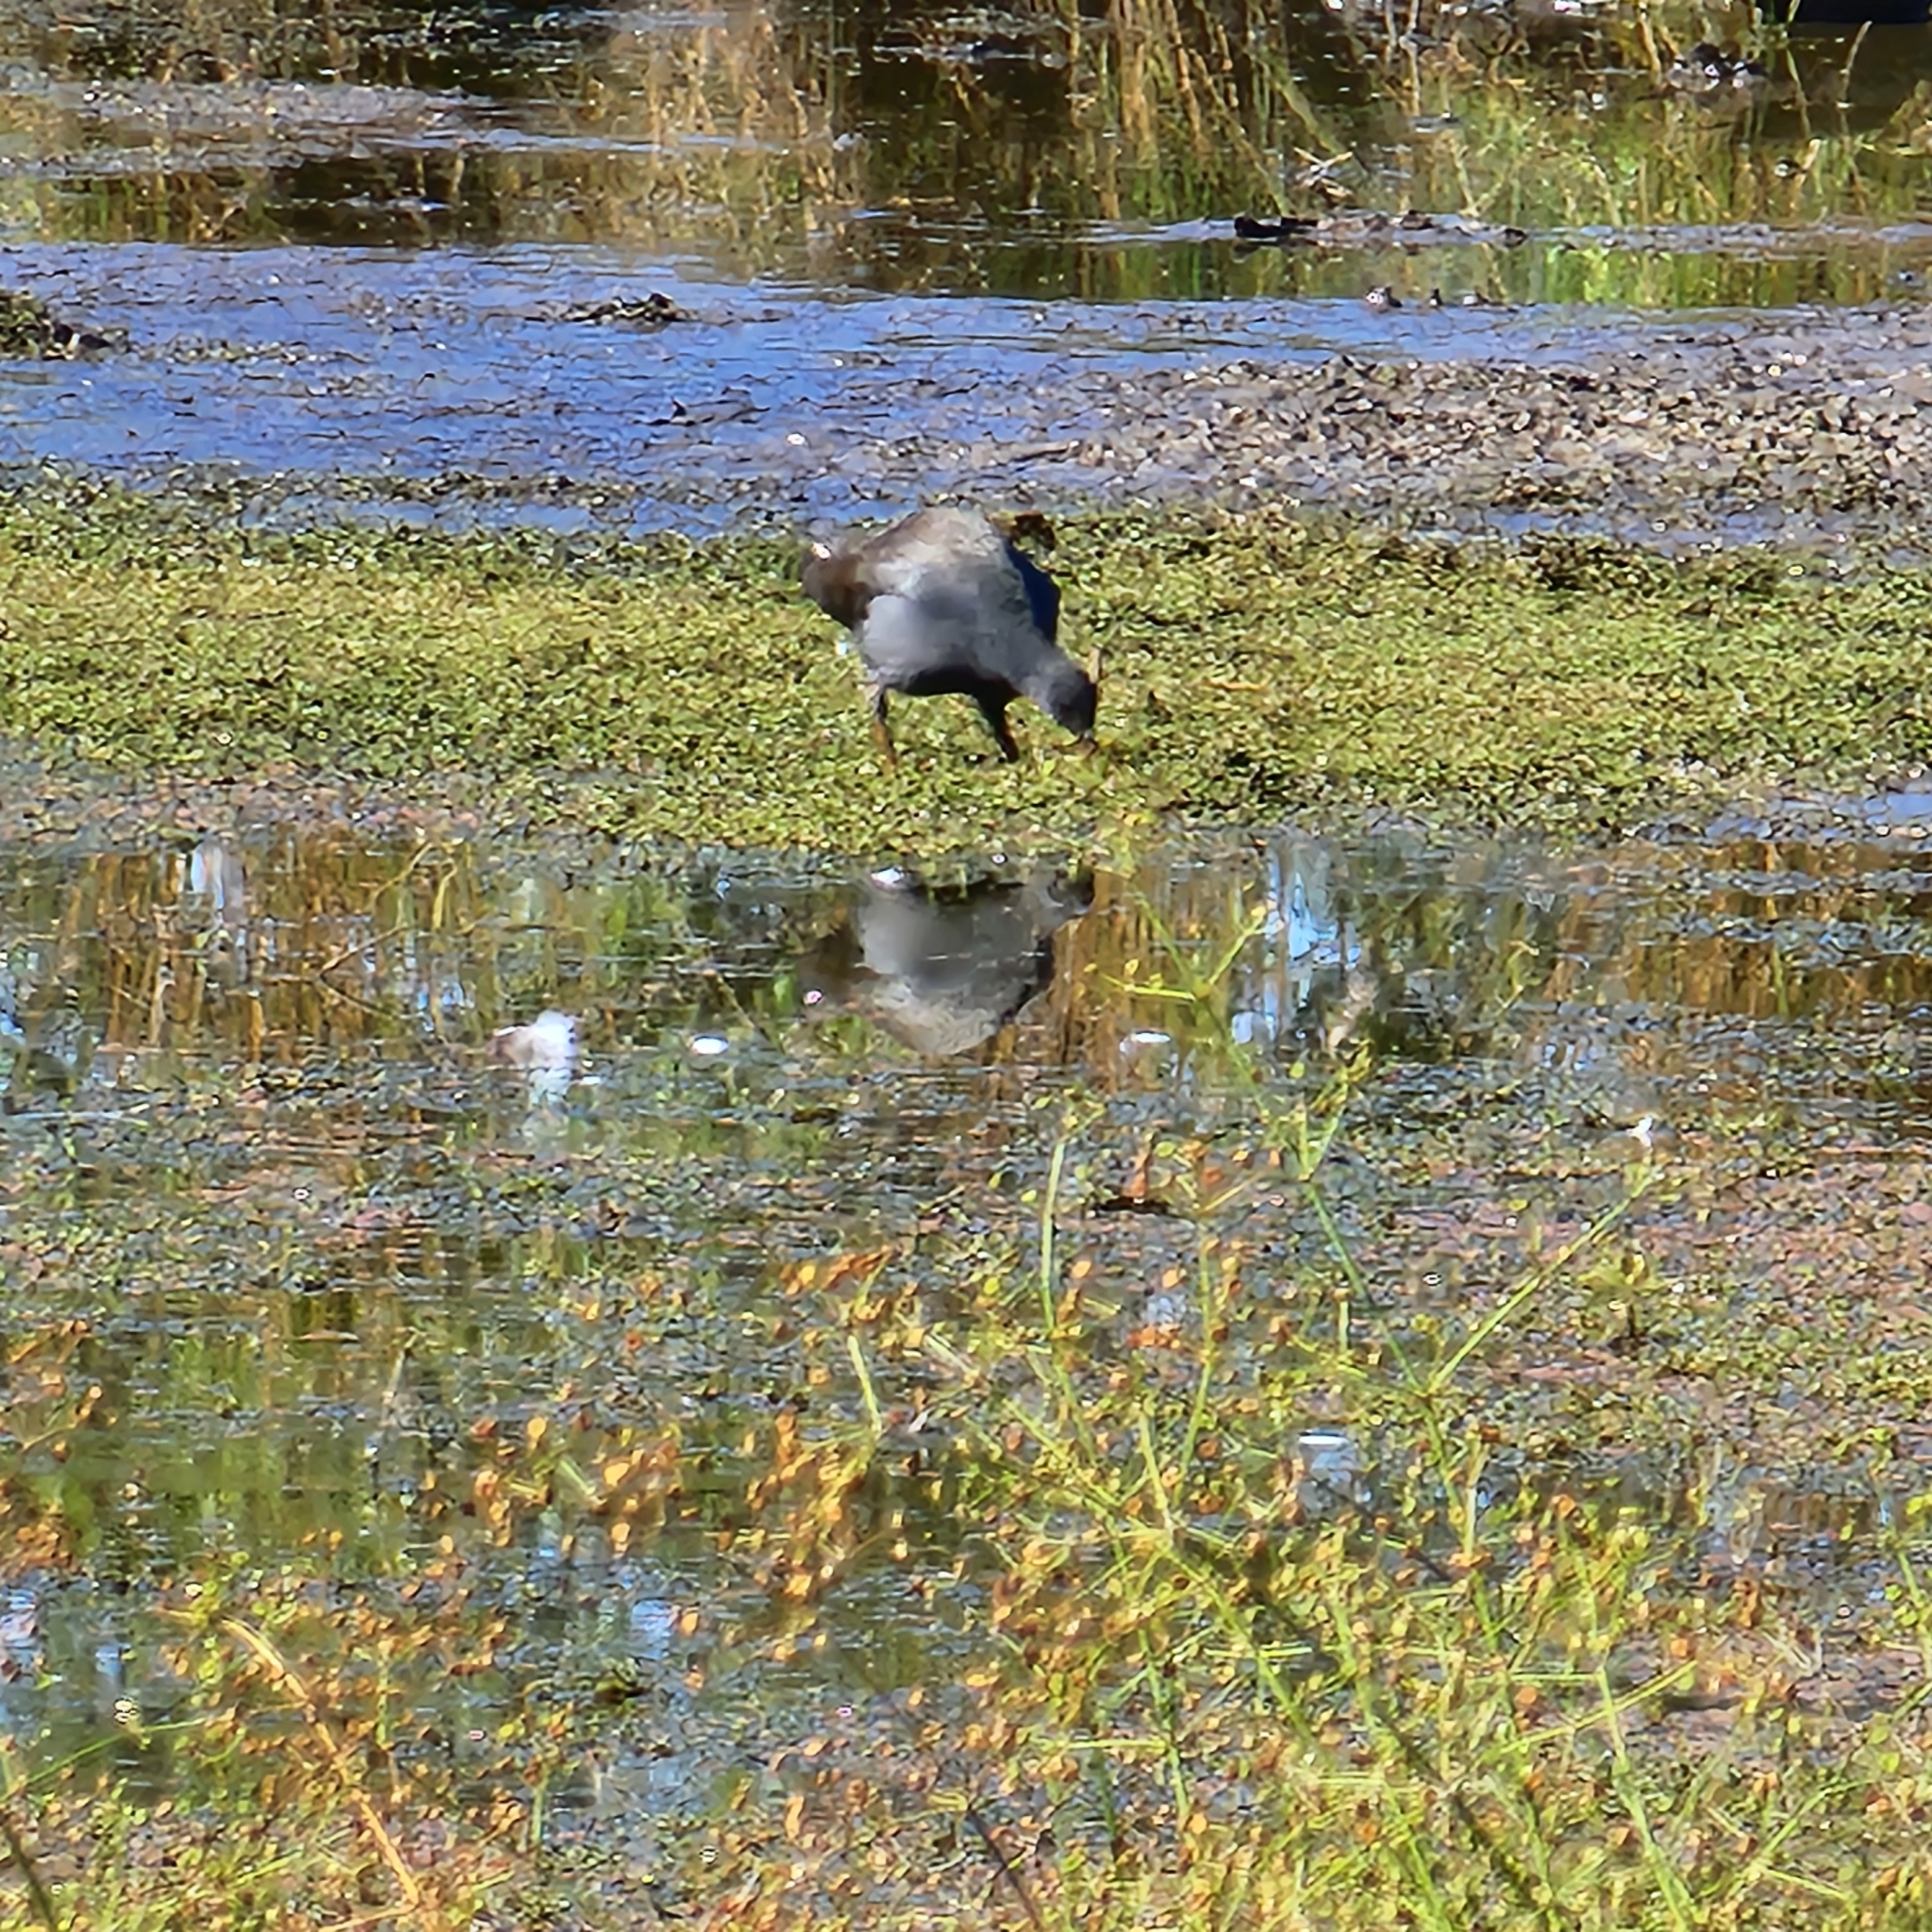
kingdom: Animalia
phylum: Chordata
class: Aves
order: Gruiformes
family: Rallidae
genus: Gallinula
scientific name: Gallinula tenebrosa
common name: Dusky moorhen
